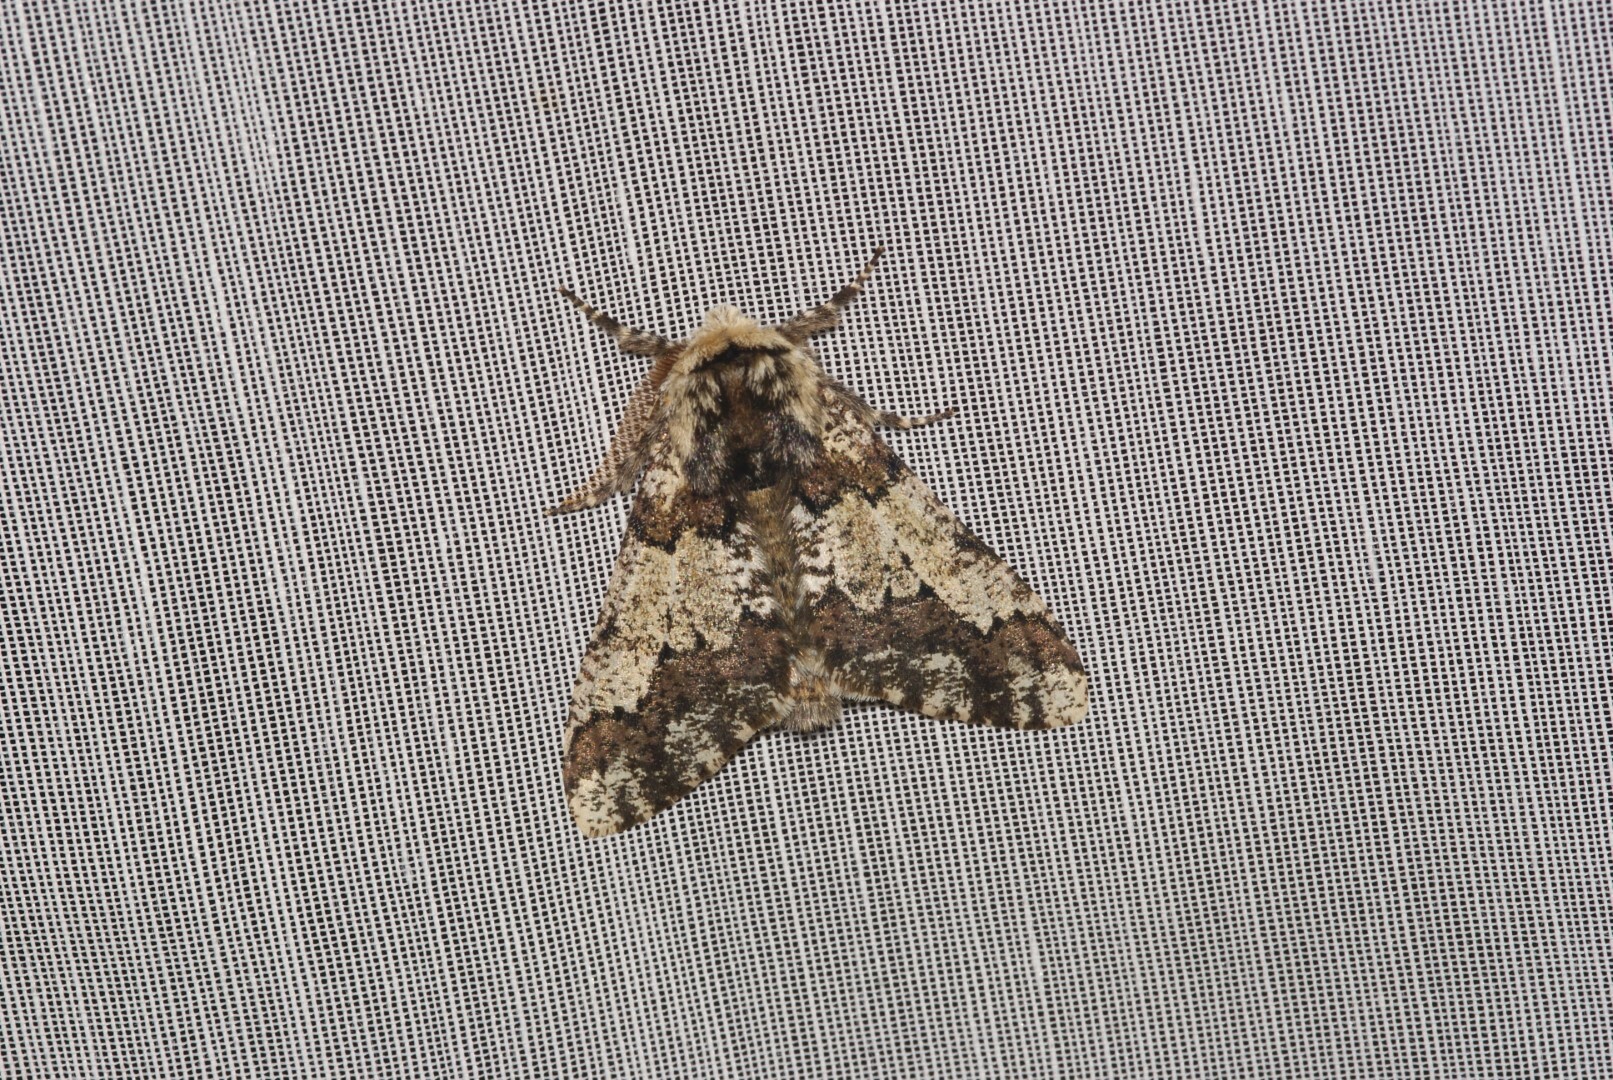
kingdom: Animalia
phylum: Arthropoda
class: Insecta
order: Lepidoptera
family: Geometridae
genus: Biston
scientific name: Biston strataria
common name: Oak beauty
